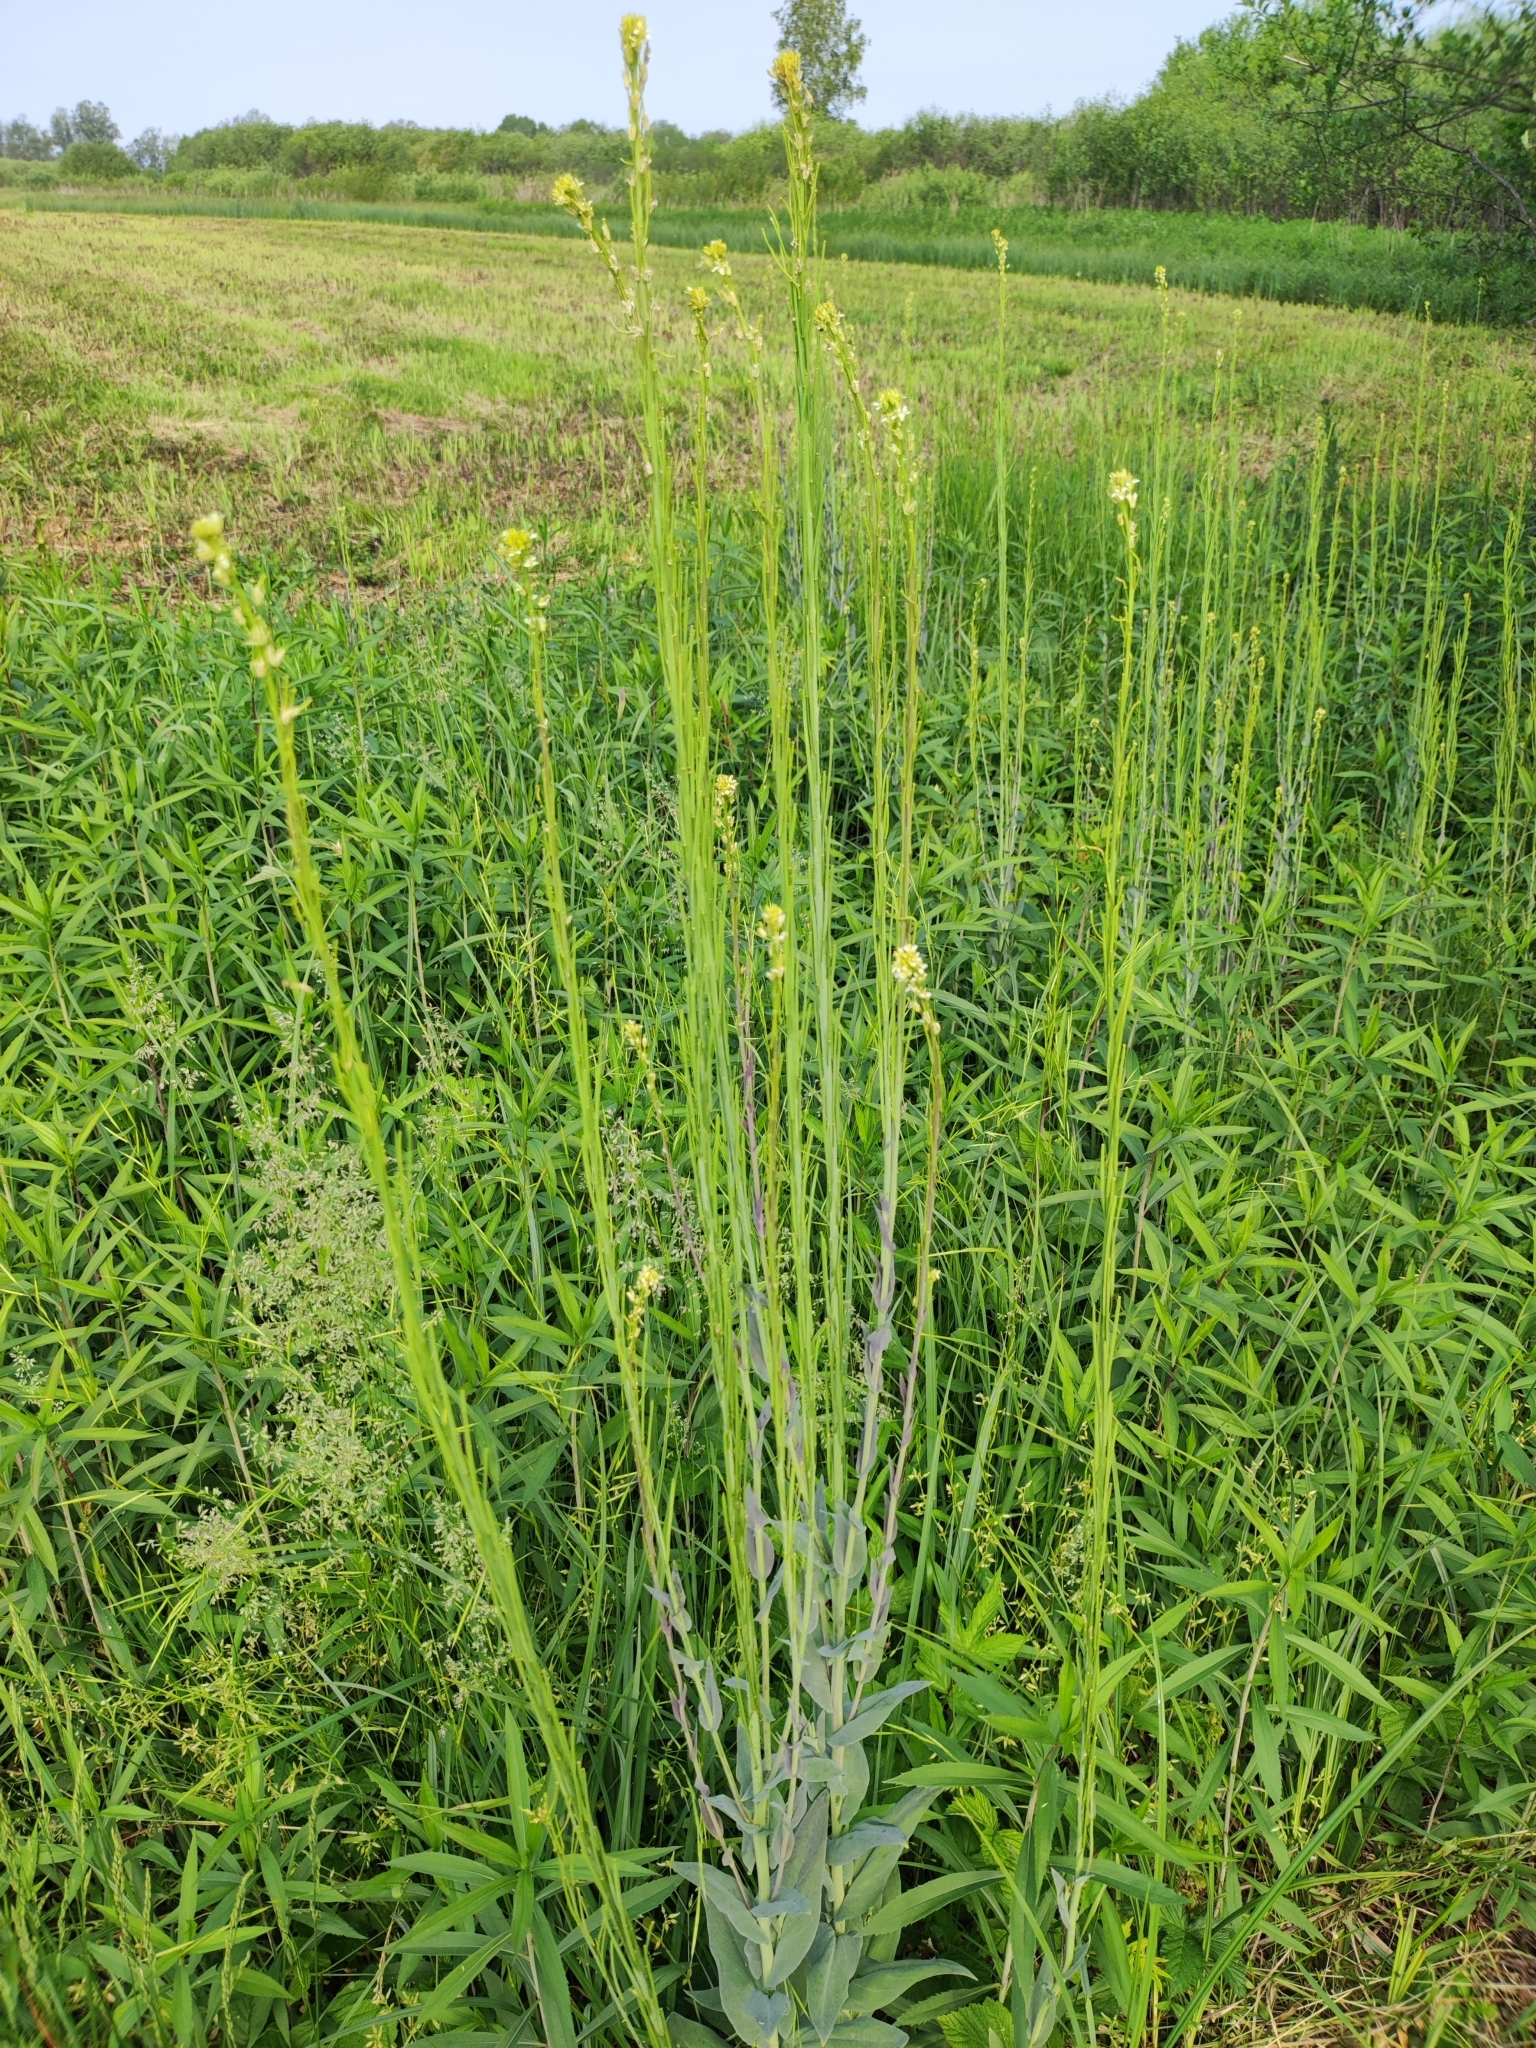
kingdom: Plantae
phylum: Tracheophyta
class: Magnoliopsida
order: Brassicales
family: Brassicaceae
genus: Turritis
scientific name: Turritis glabra
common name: Tower rockcress
